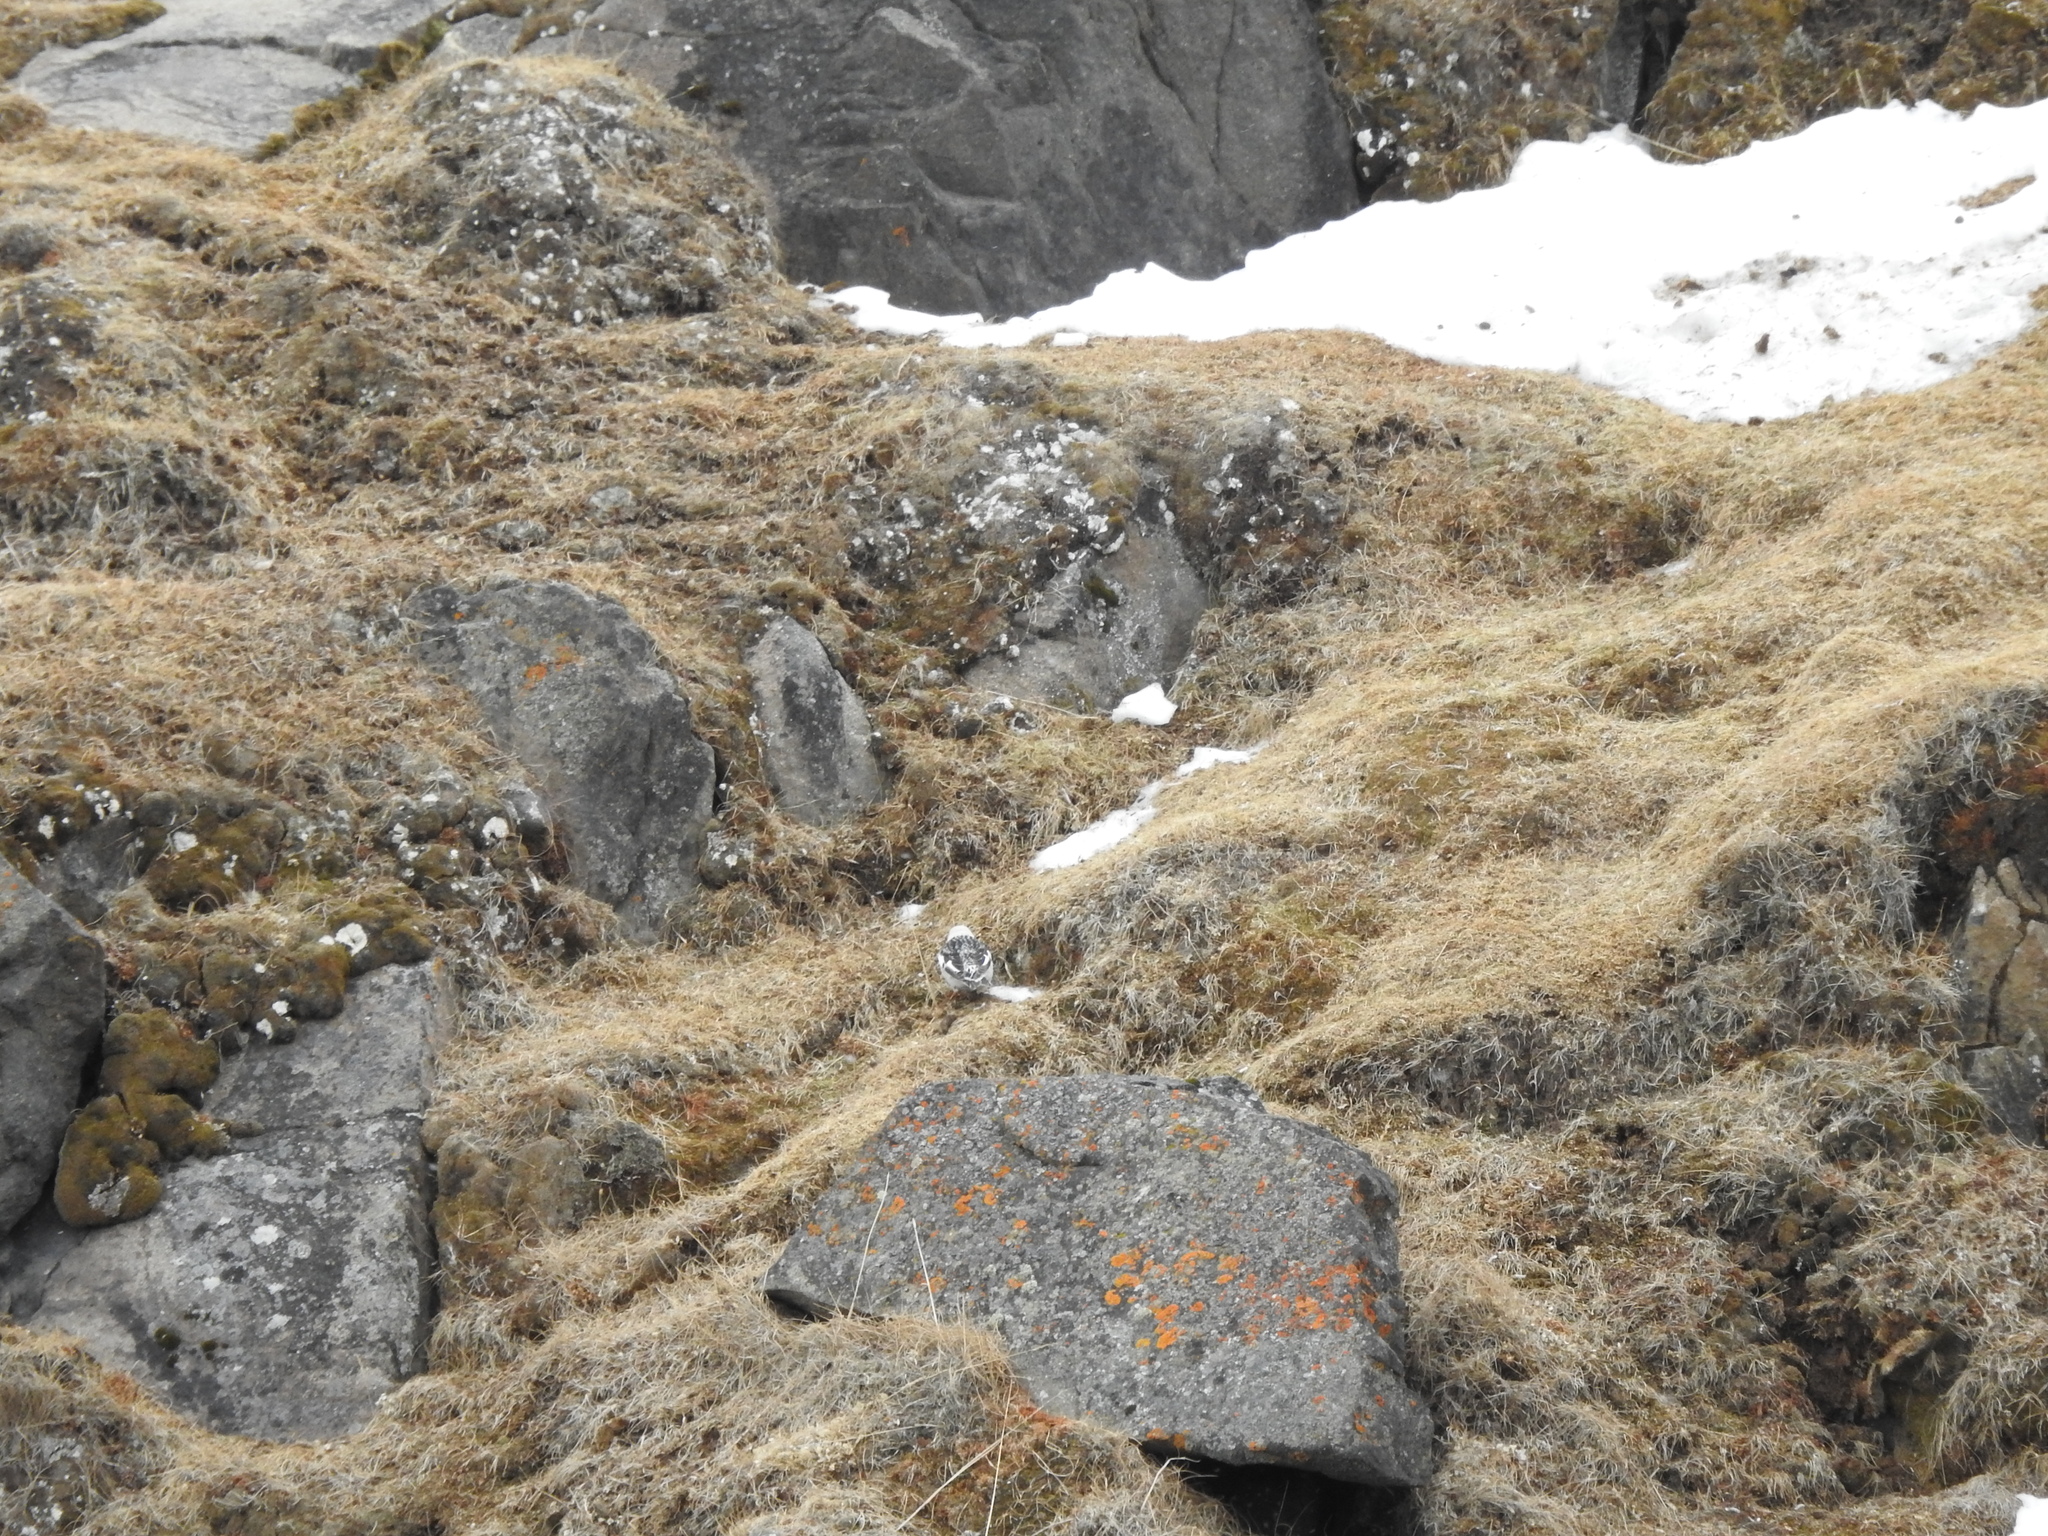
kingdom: Animalia
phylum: Chordata
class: Aves
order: Passeriformes
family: Calcariidae
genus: Plectrophenax
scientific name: Plectrophenax nivalis
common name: Snow bunting
